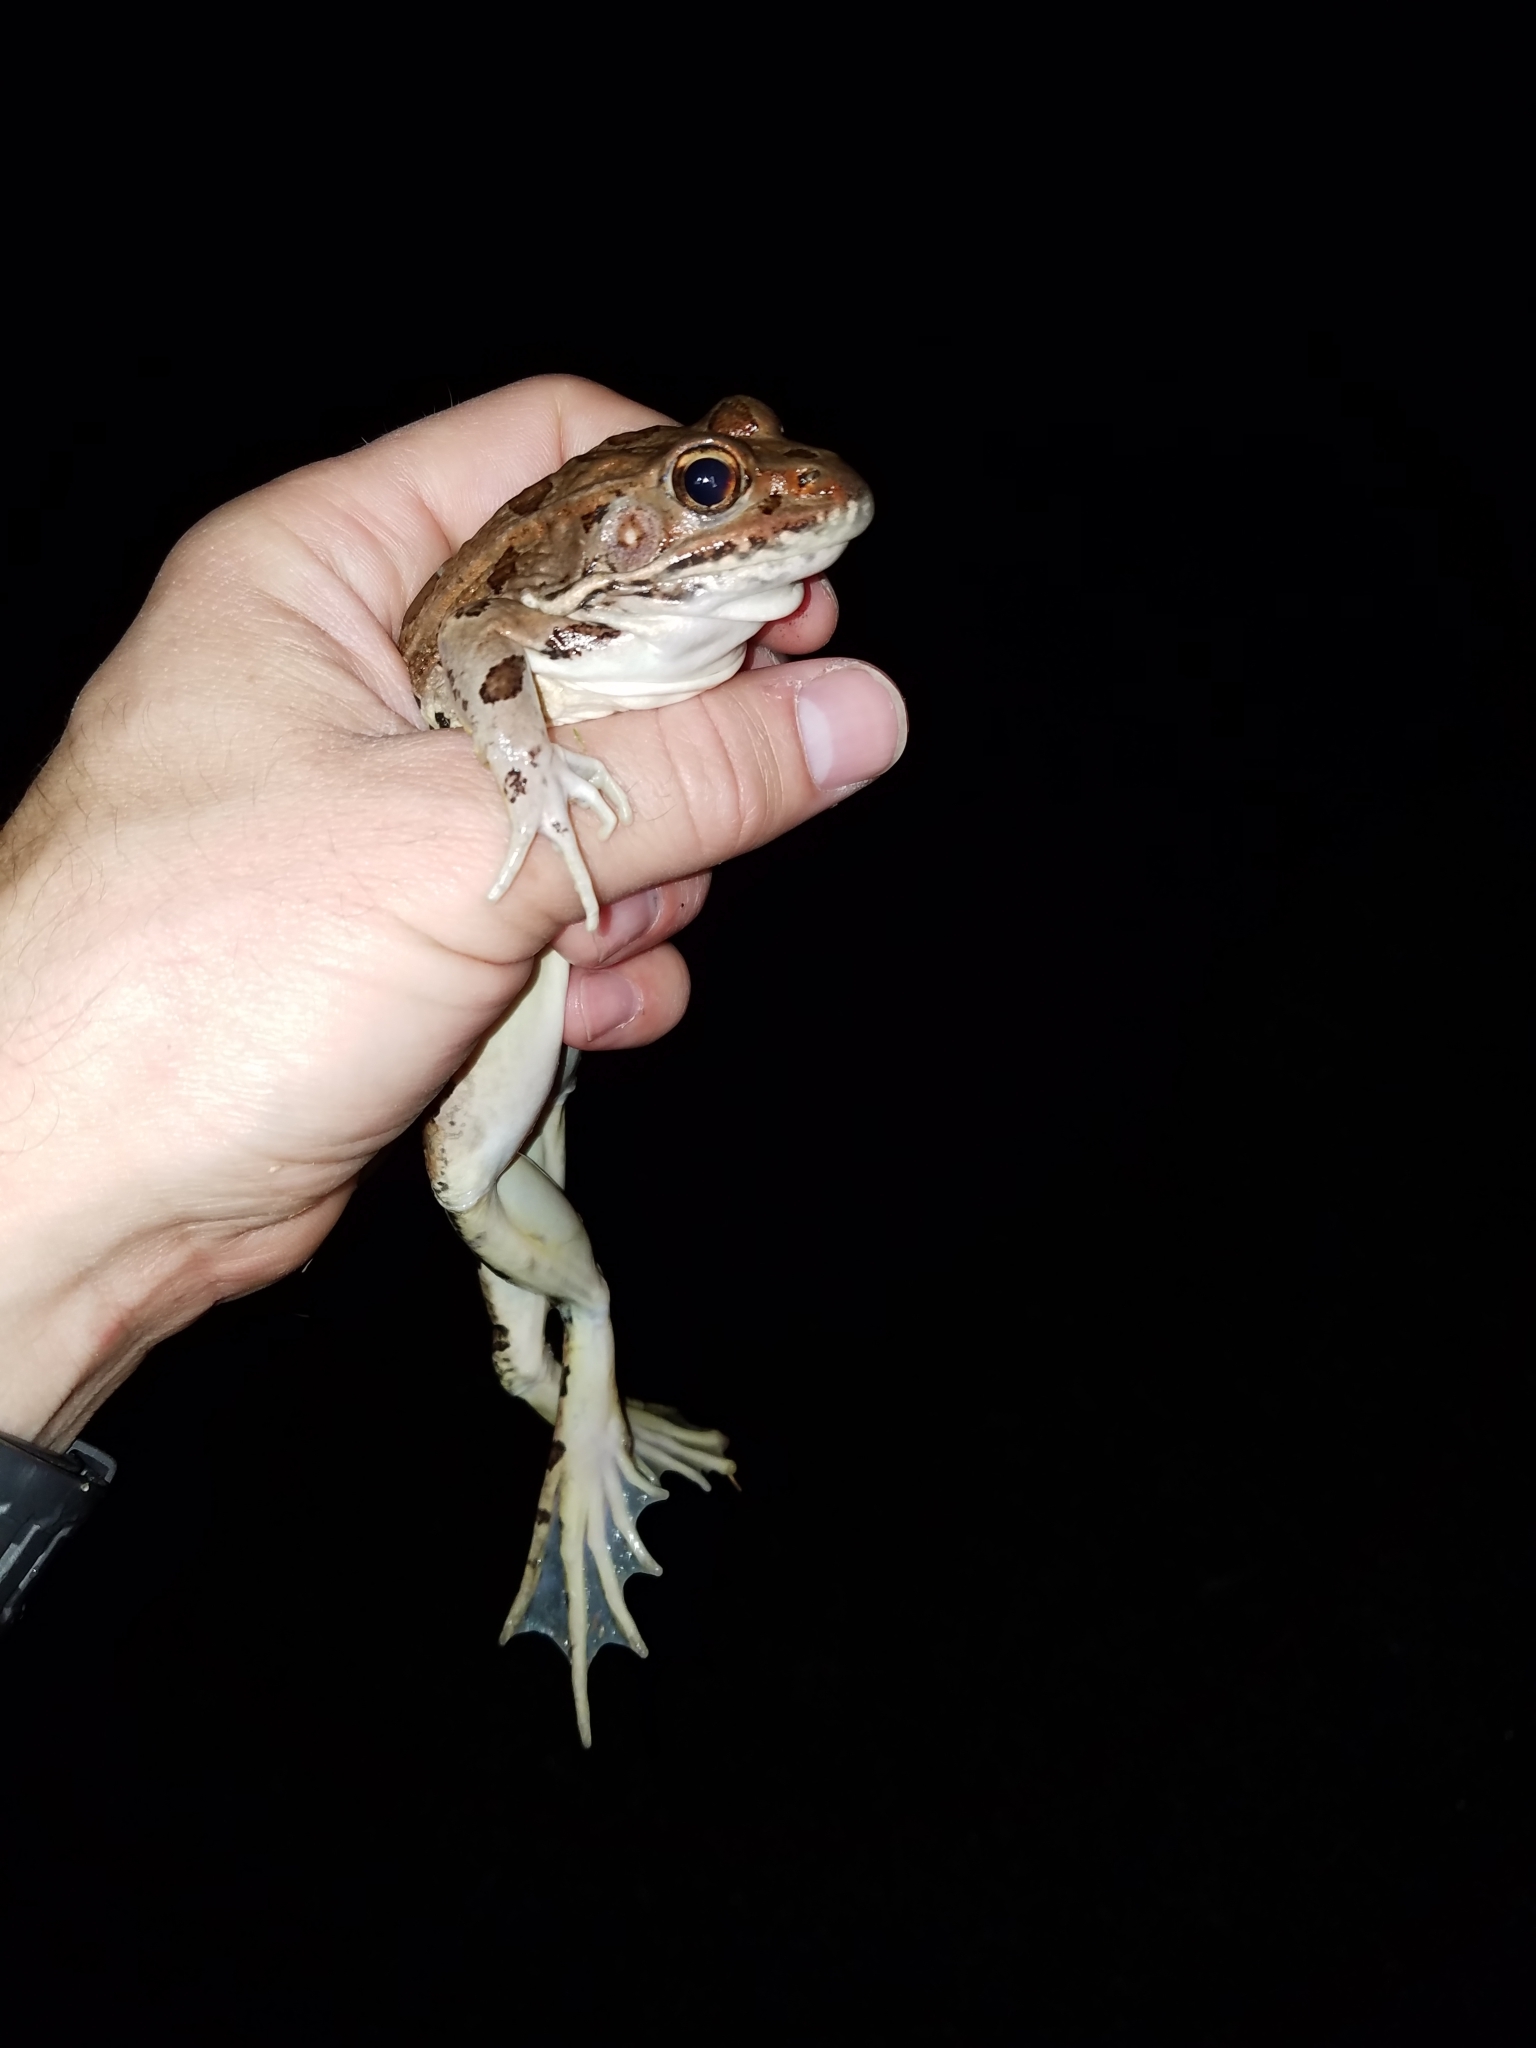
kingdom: Animalia
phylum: Chordata
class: Amphibia
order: Anura
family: Ranidae
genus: Lithobates
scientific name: Lithobates blairi
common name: Plains leopard frog
